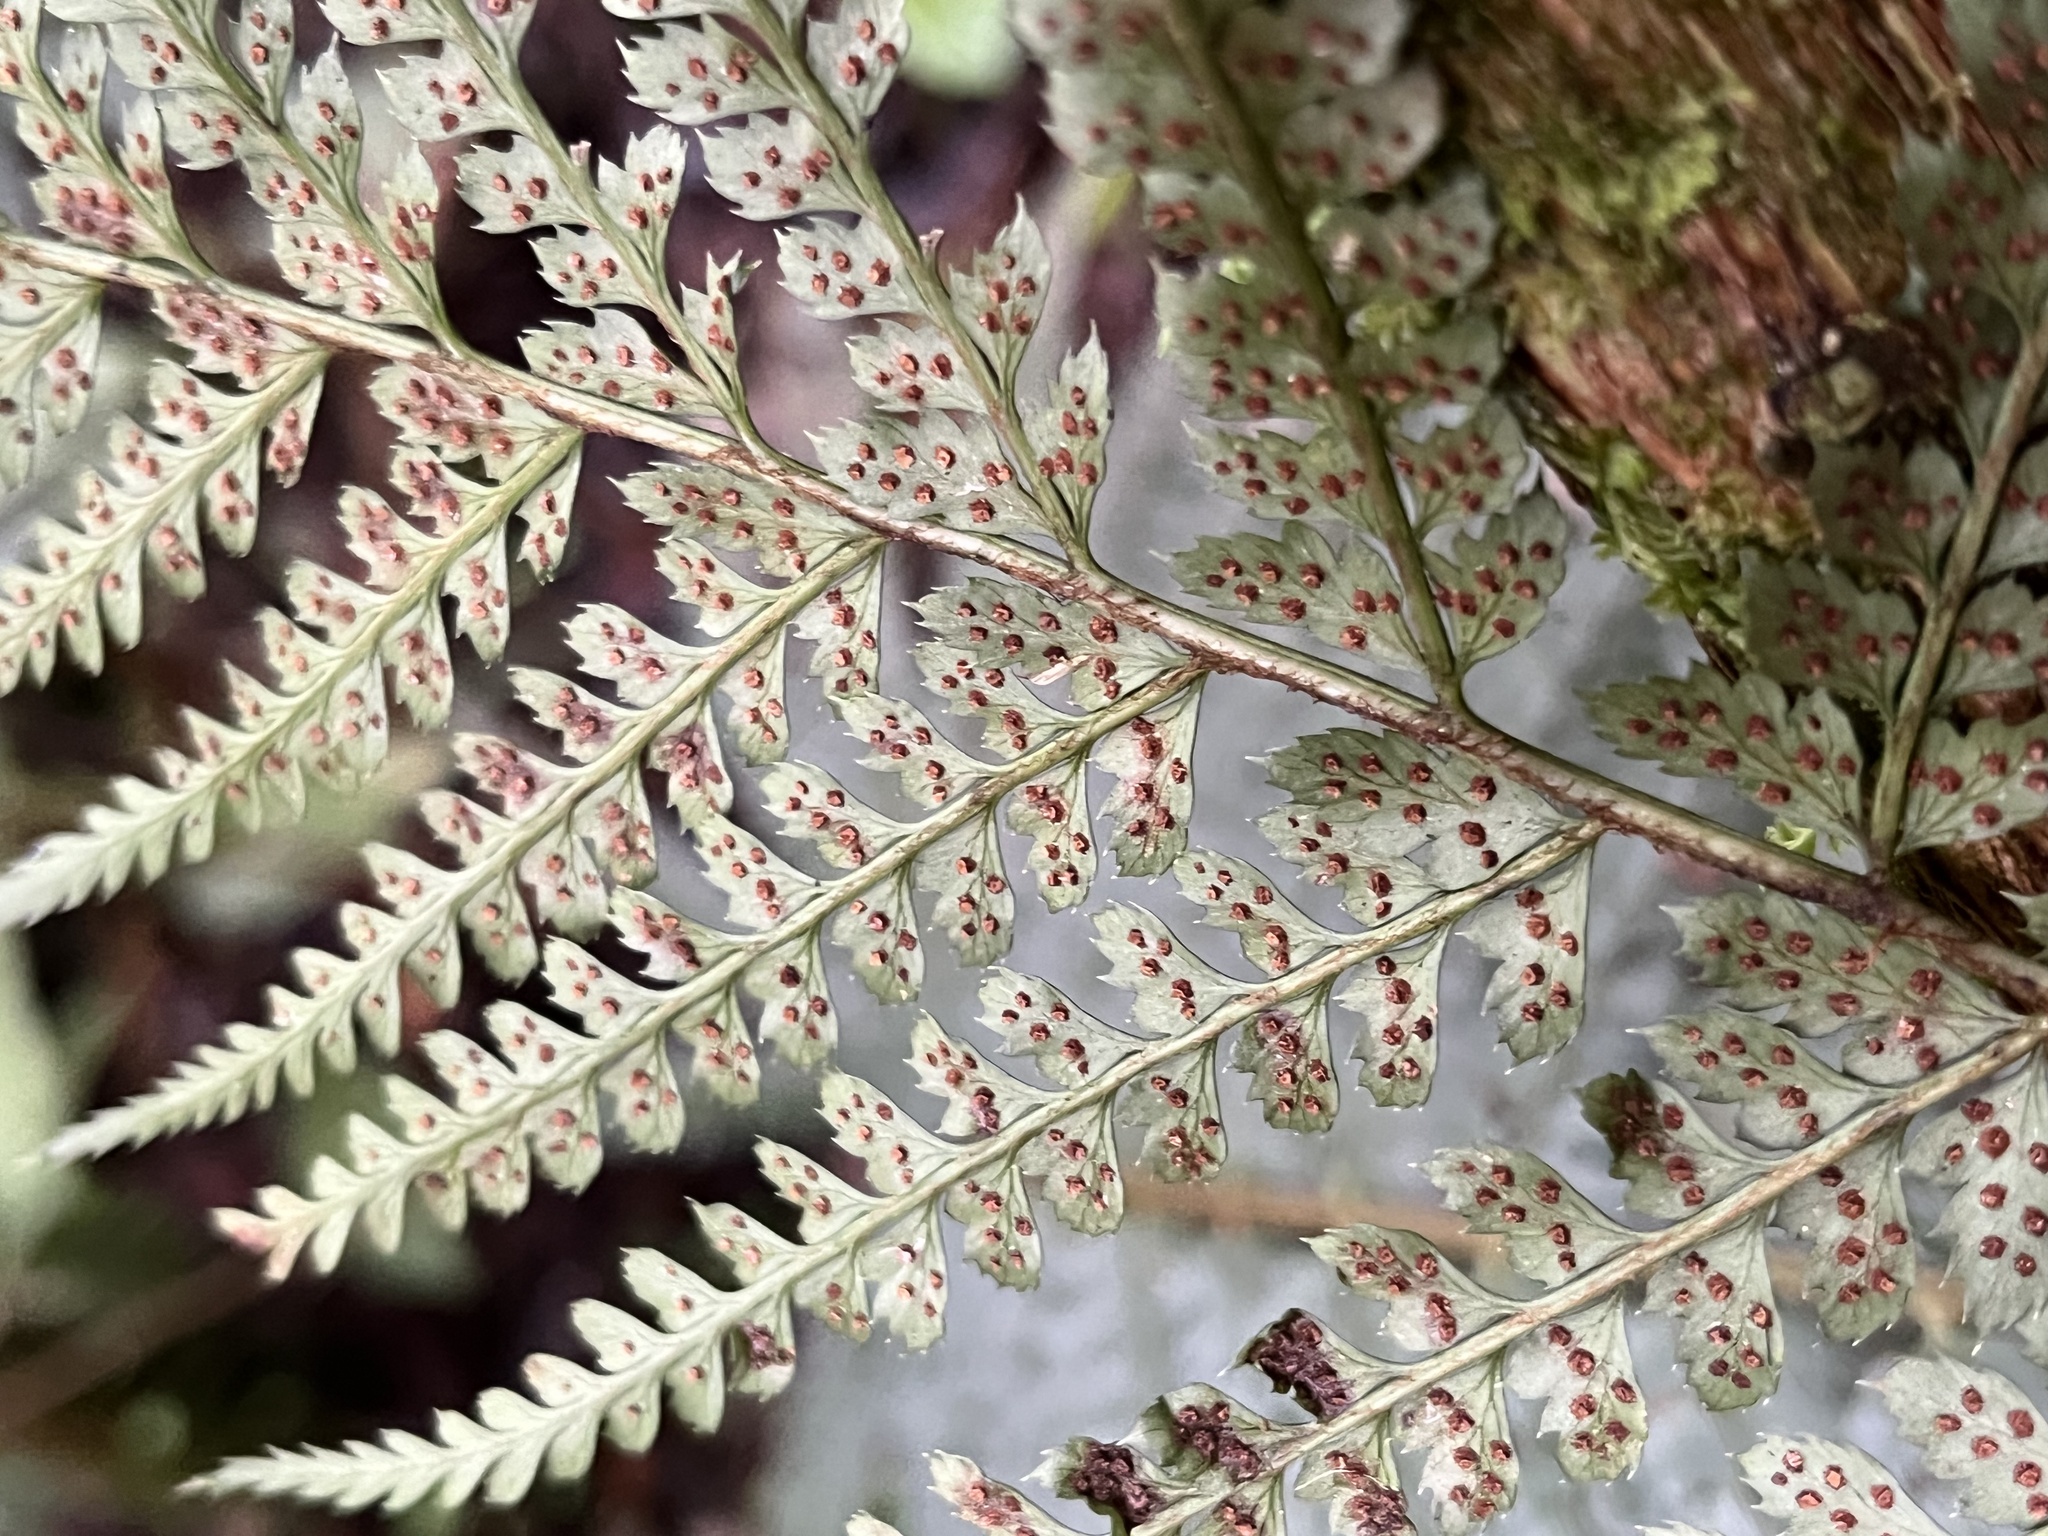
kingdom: Plantae
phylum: Tracheophyta
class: Polypodiopsida
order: Polypodiales
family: Dryopteridaceae
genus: Polystichum
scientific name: Polystichum muricatum
